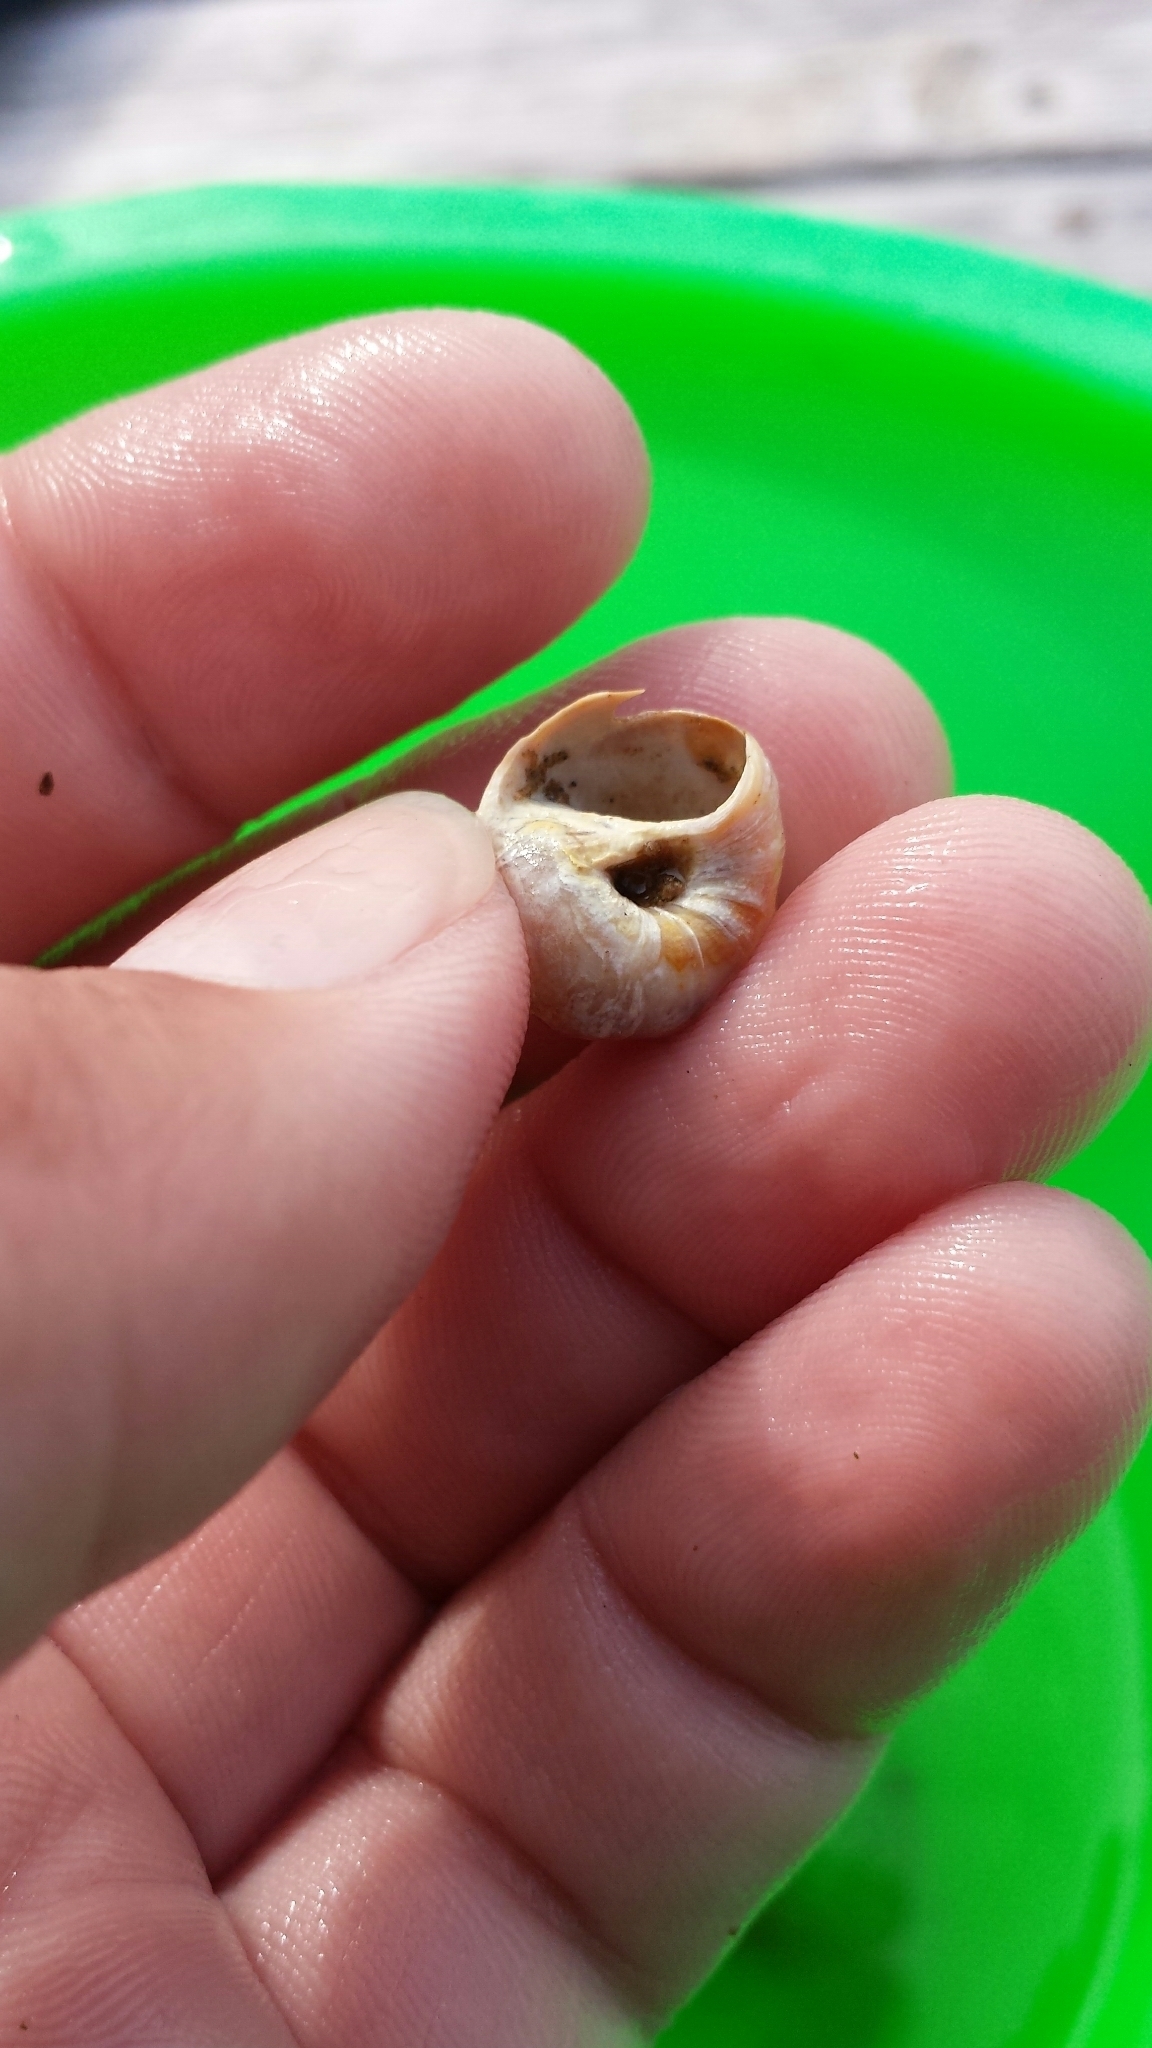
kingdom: Animalia
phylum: Mollusca
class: Gastropoda
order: Littorinimorpha
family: Naticidae
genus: Euspira
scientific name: Euspira heros
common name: Common northern moonsnail
